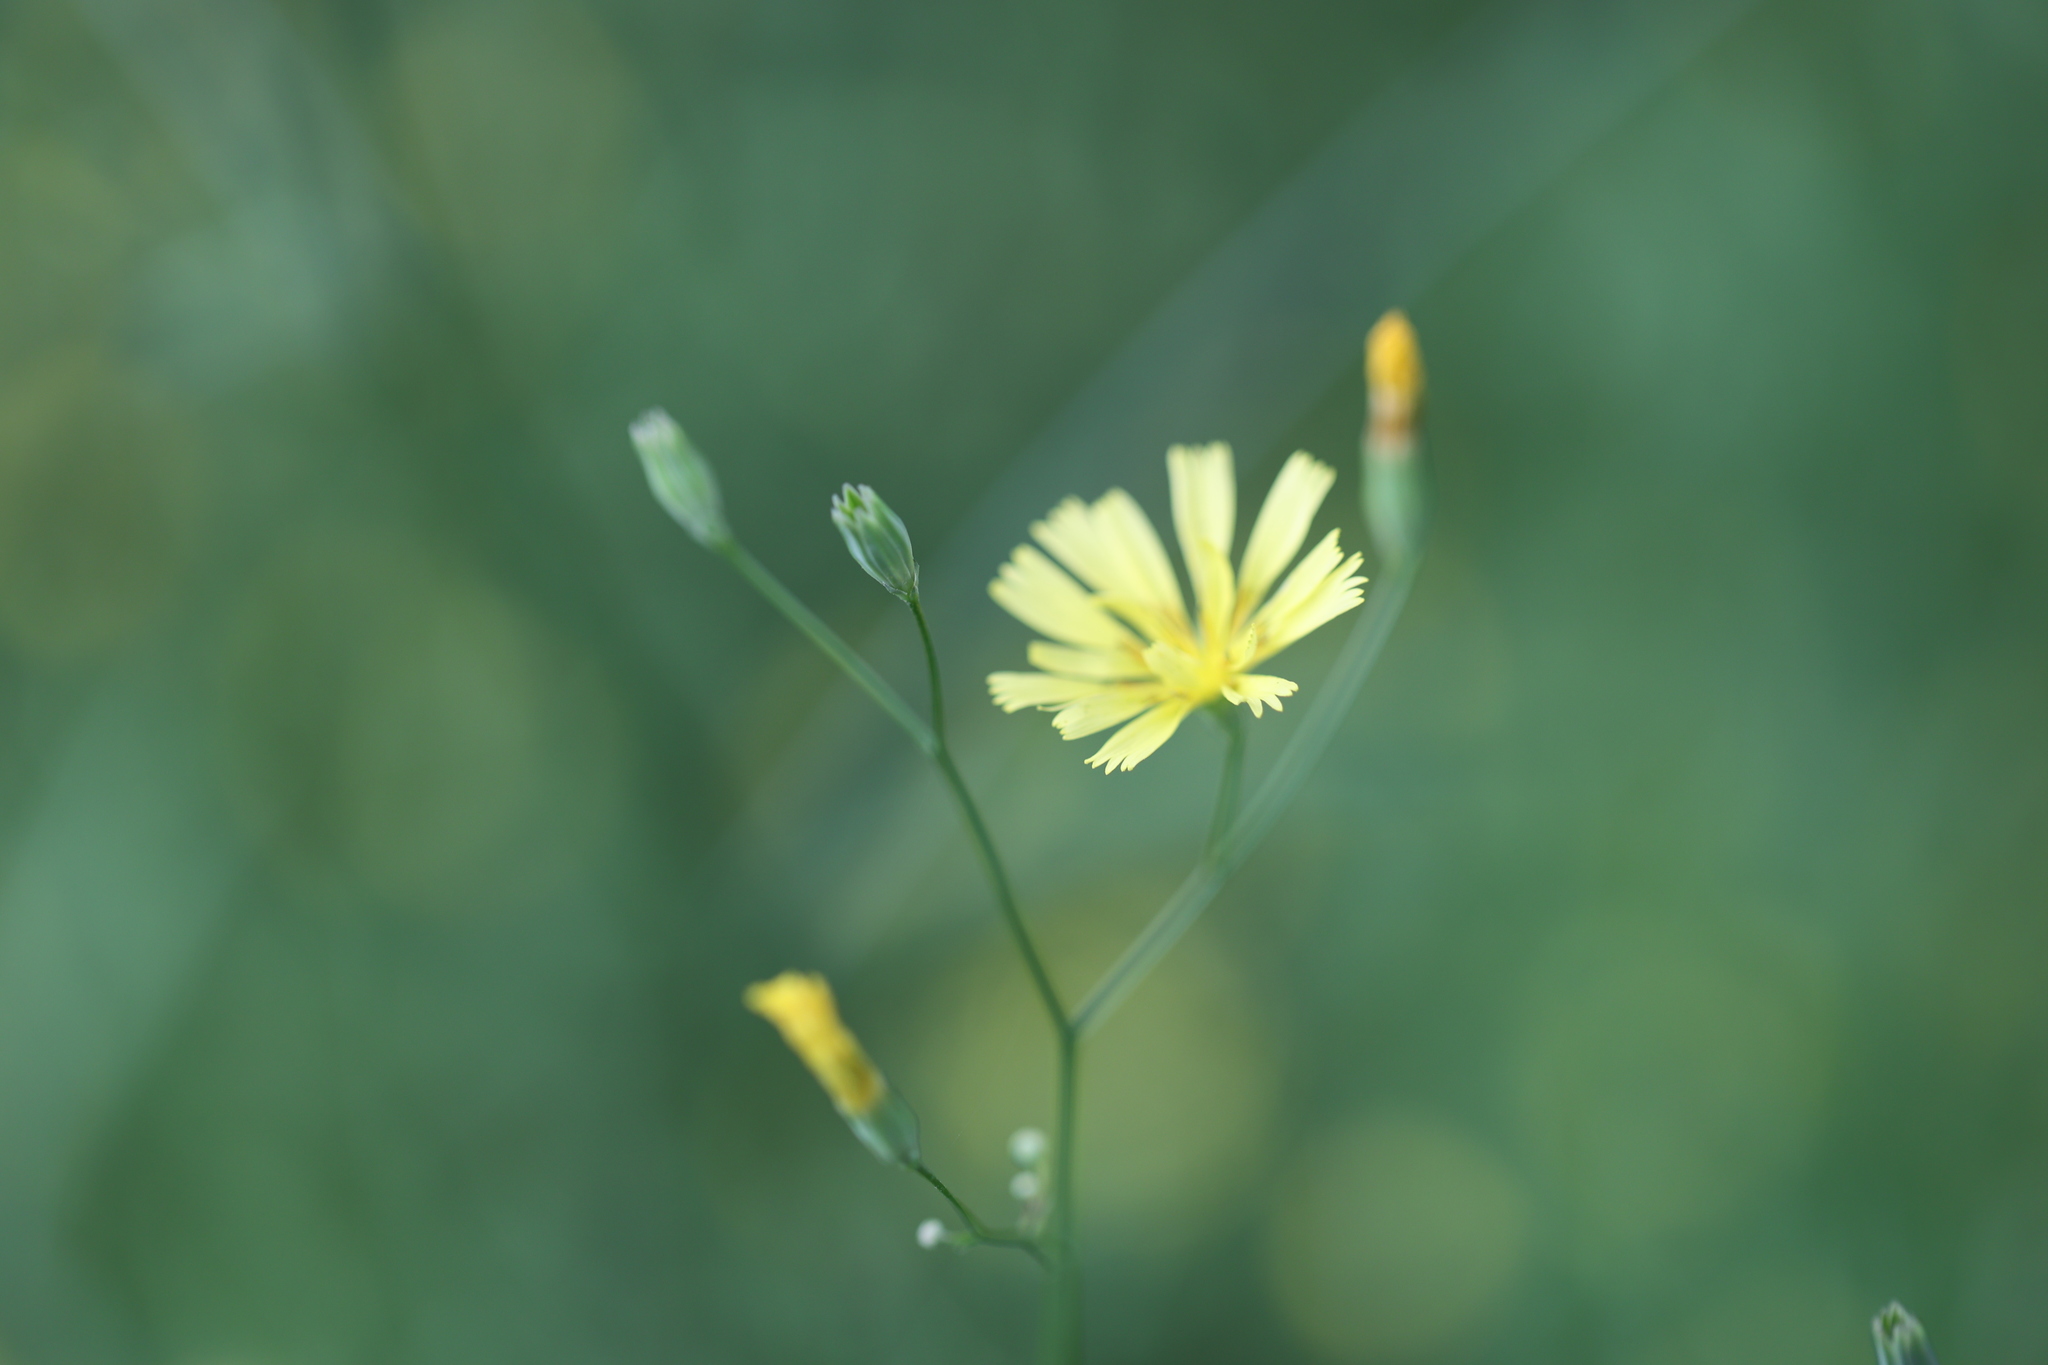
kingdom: Plantae
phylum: Tracheophyta
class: Magnoliopsida
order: Asterales
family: Asteraceae
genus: Lapsana
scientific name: Lapsana communis
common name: Nipplewort
